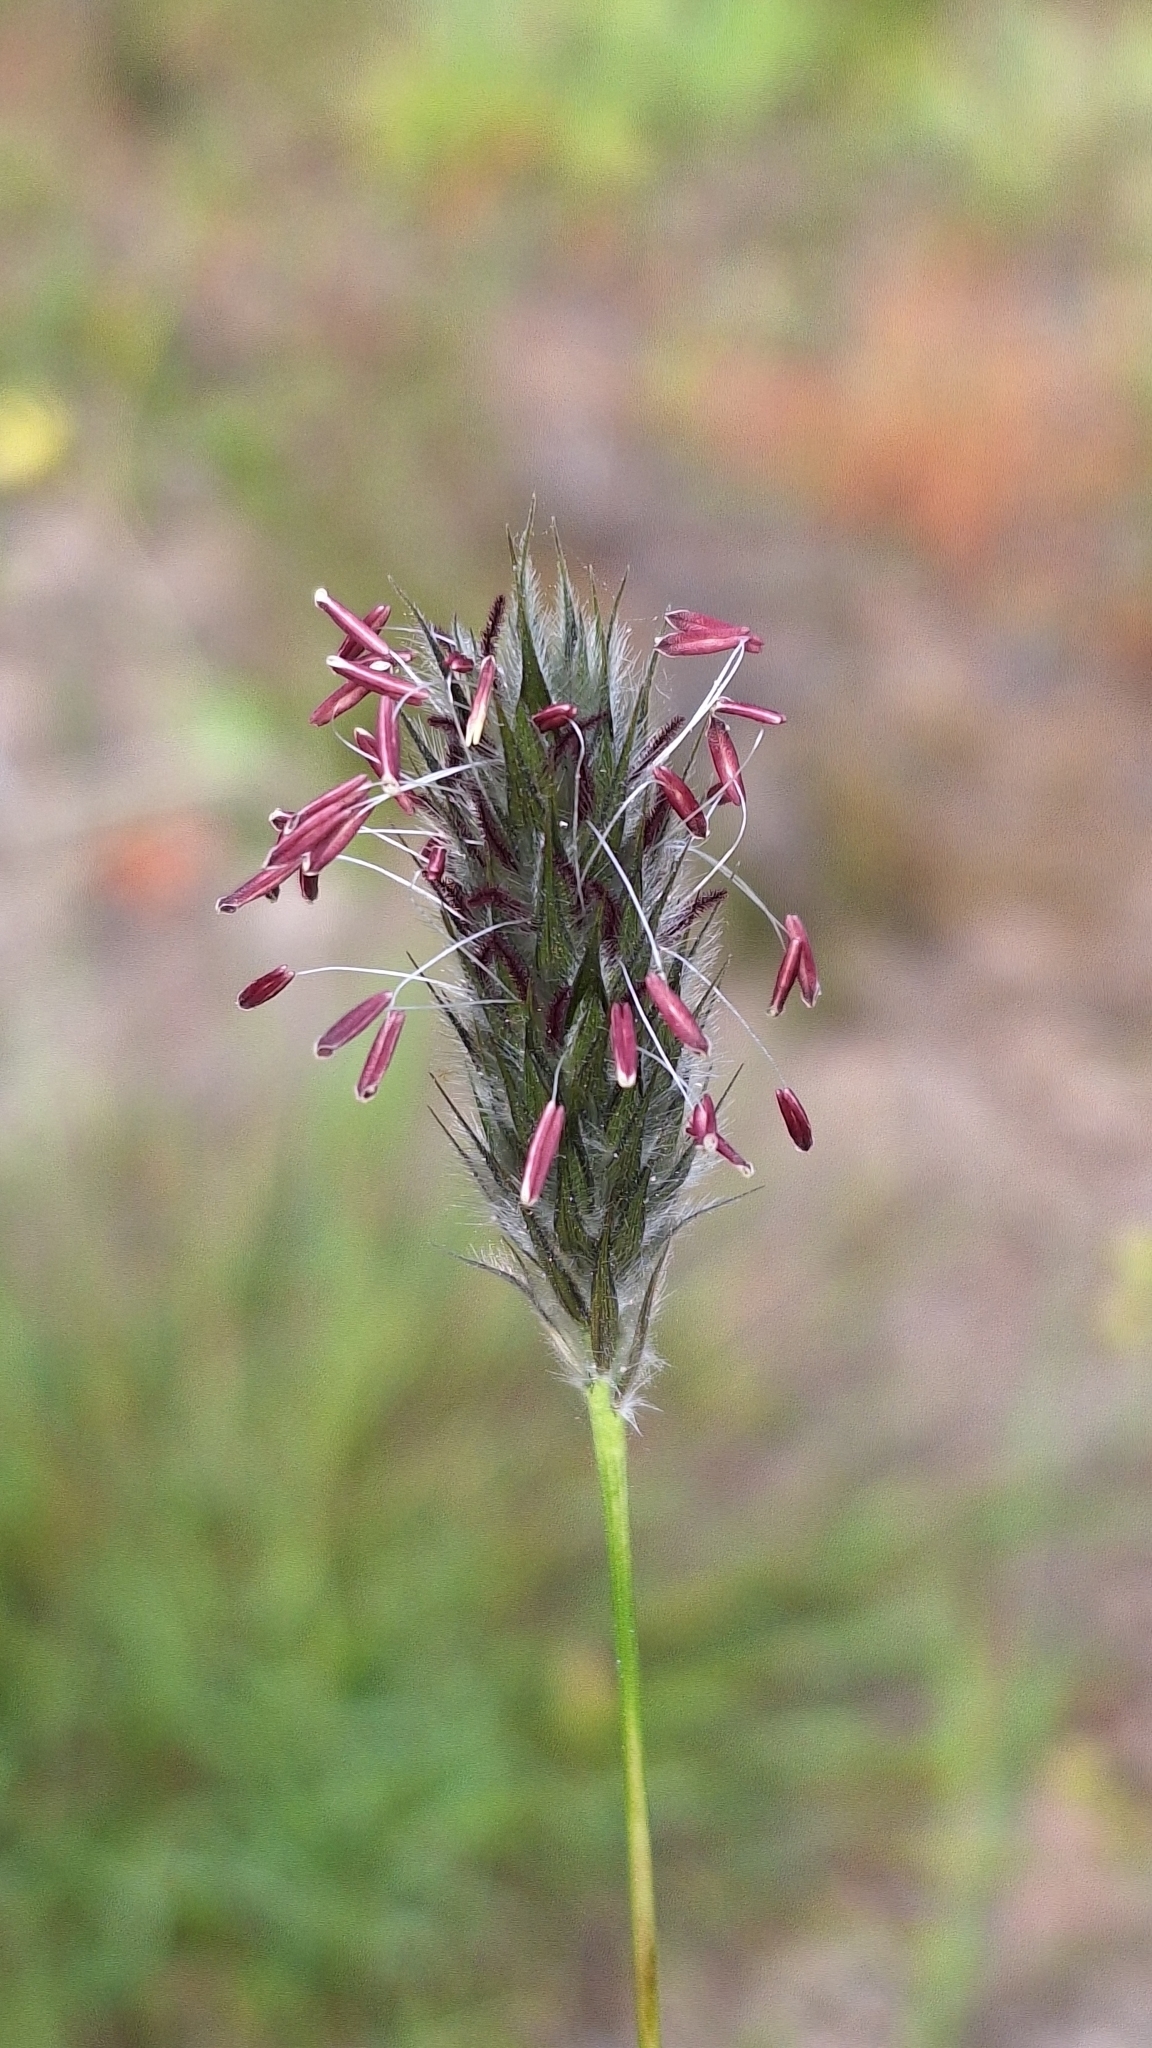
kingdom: Plantae
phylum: Tracheophyta
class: Liliopsida
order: Poales
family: Poaceae
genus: Neurachne
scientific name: Neurachne alopecuroidea
